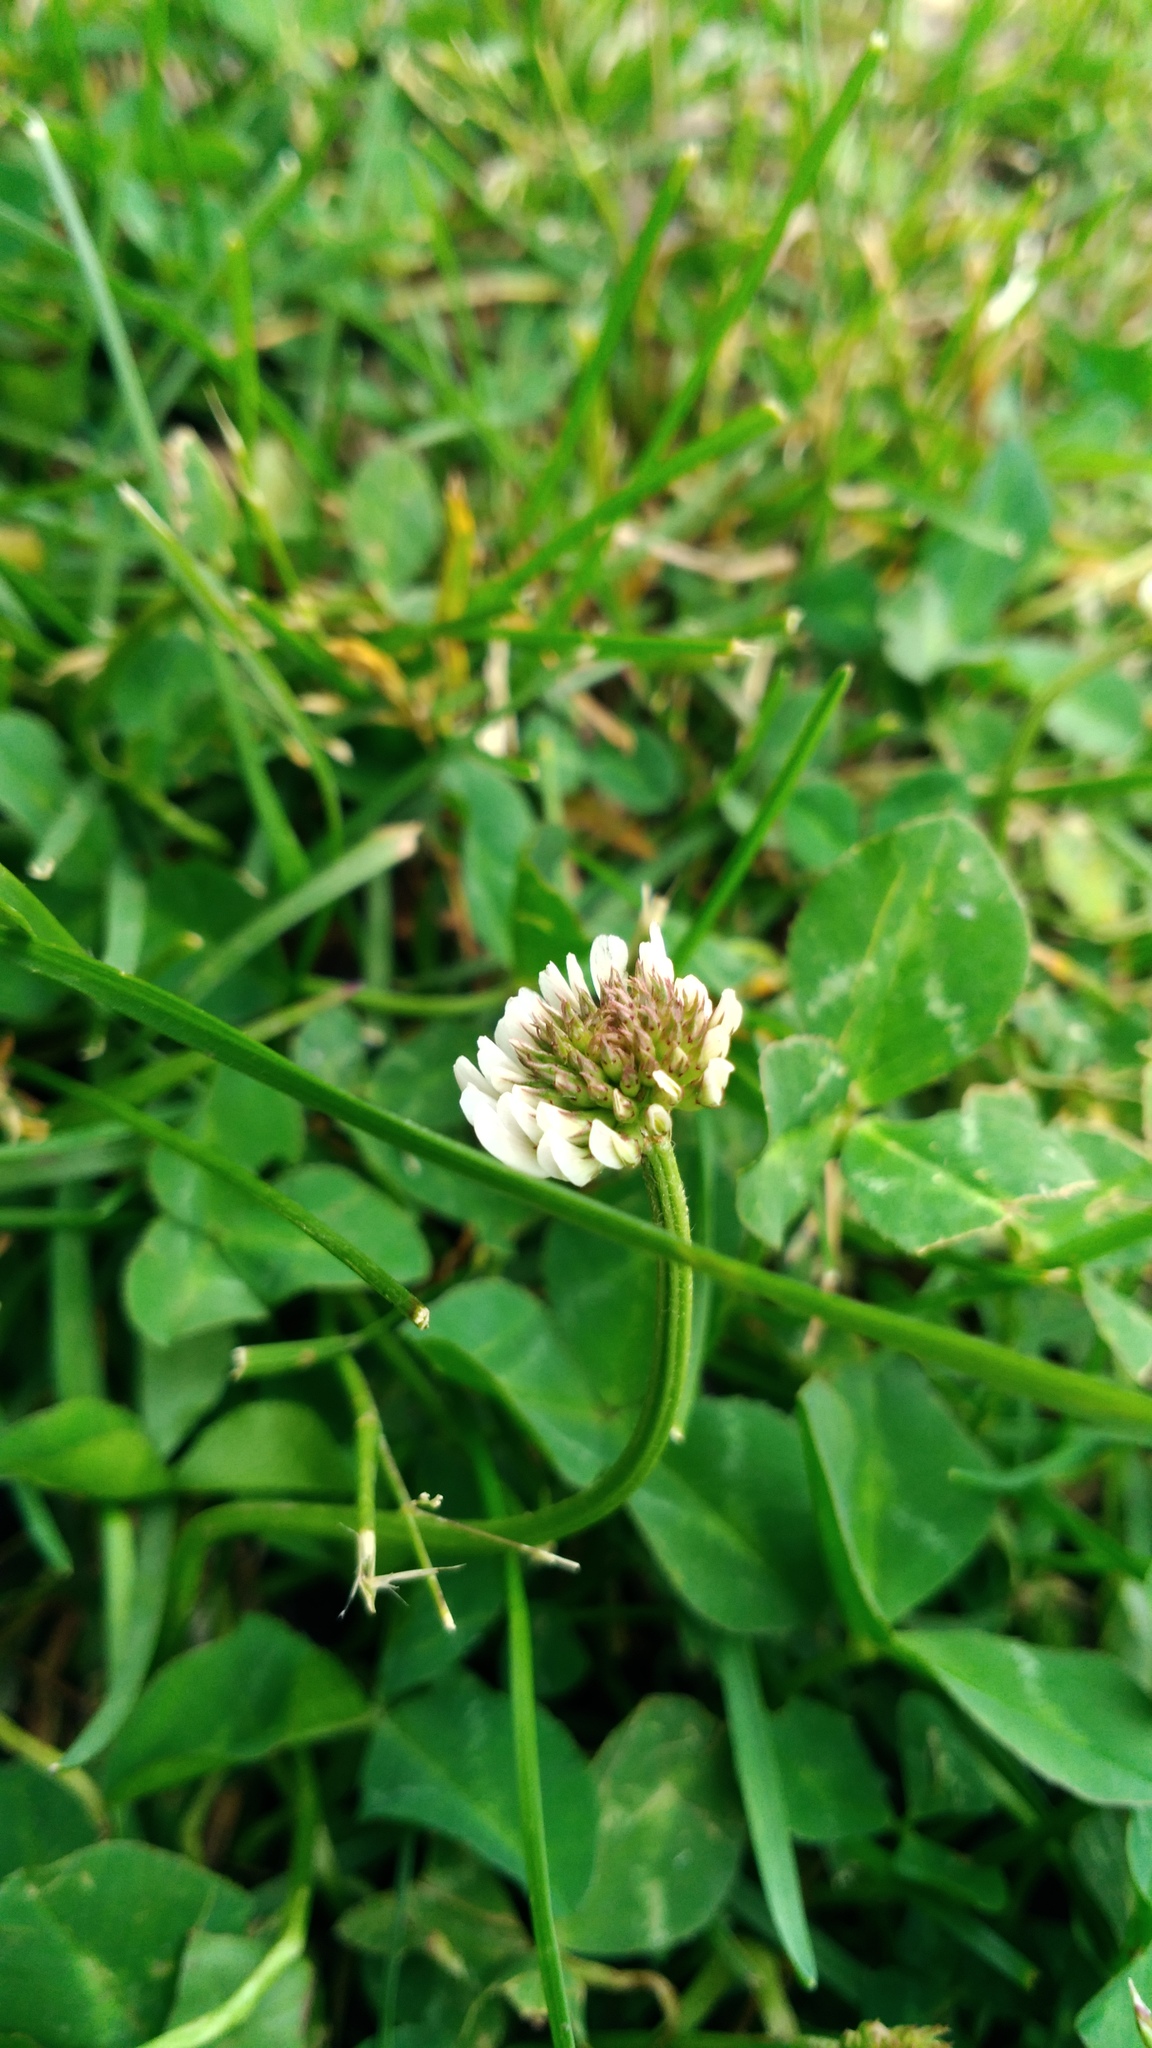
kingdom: Plantae
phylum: Tracheophyta
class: Magnoliopsida
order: Fabales
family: Fabaceae
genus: Trifolium
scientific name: Trifolium repens
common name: White clover
